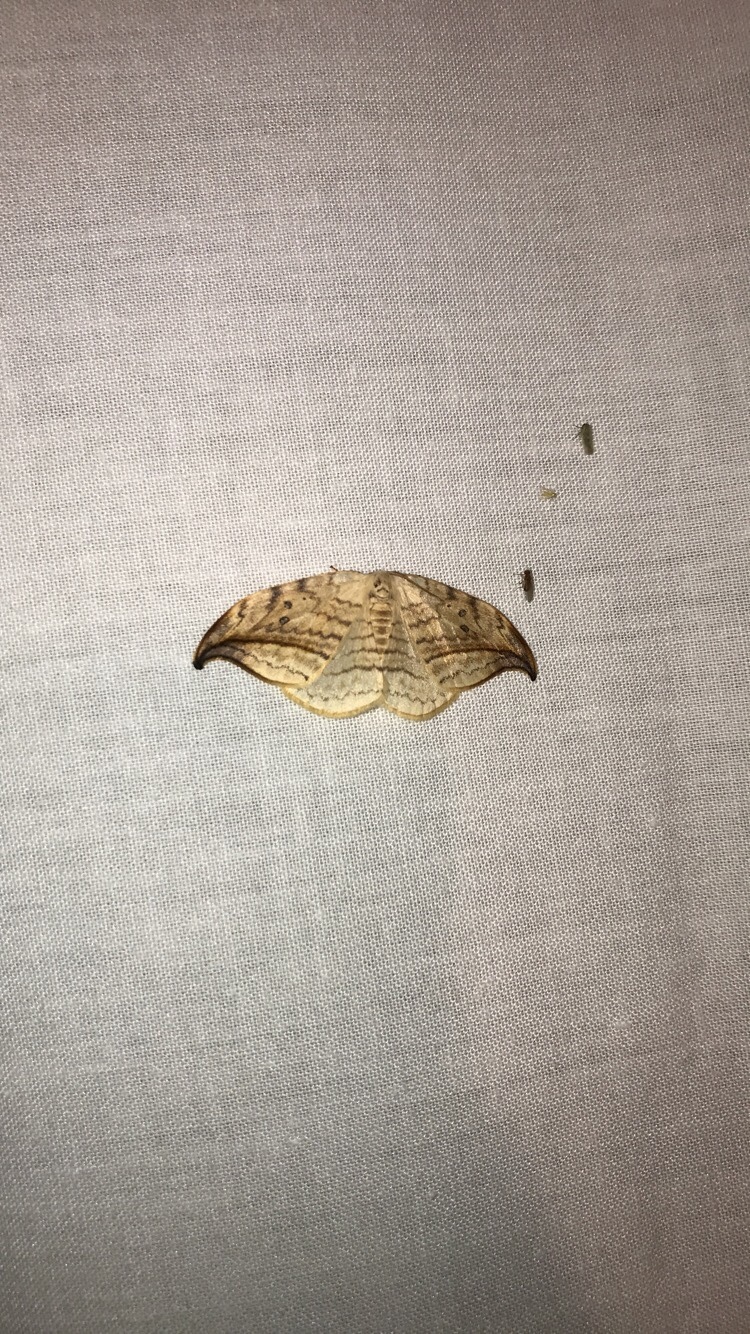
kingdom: Animalia
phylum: Arthropoda
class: Insecta
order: Lepidoptera
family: Drepanidae
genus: Drepana
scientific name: Drepana arcuata
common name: Arched hooktip moth
